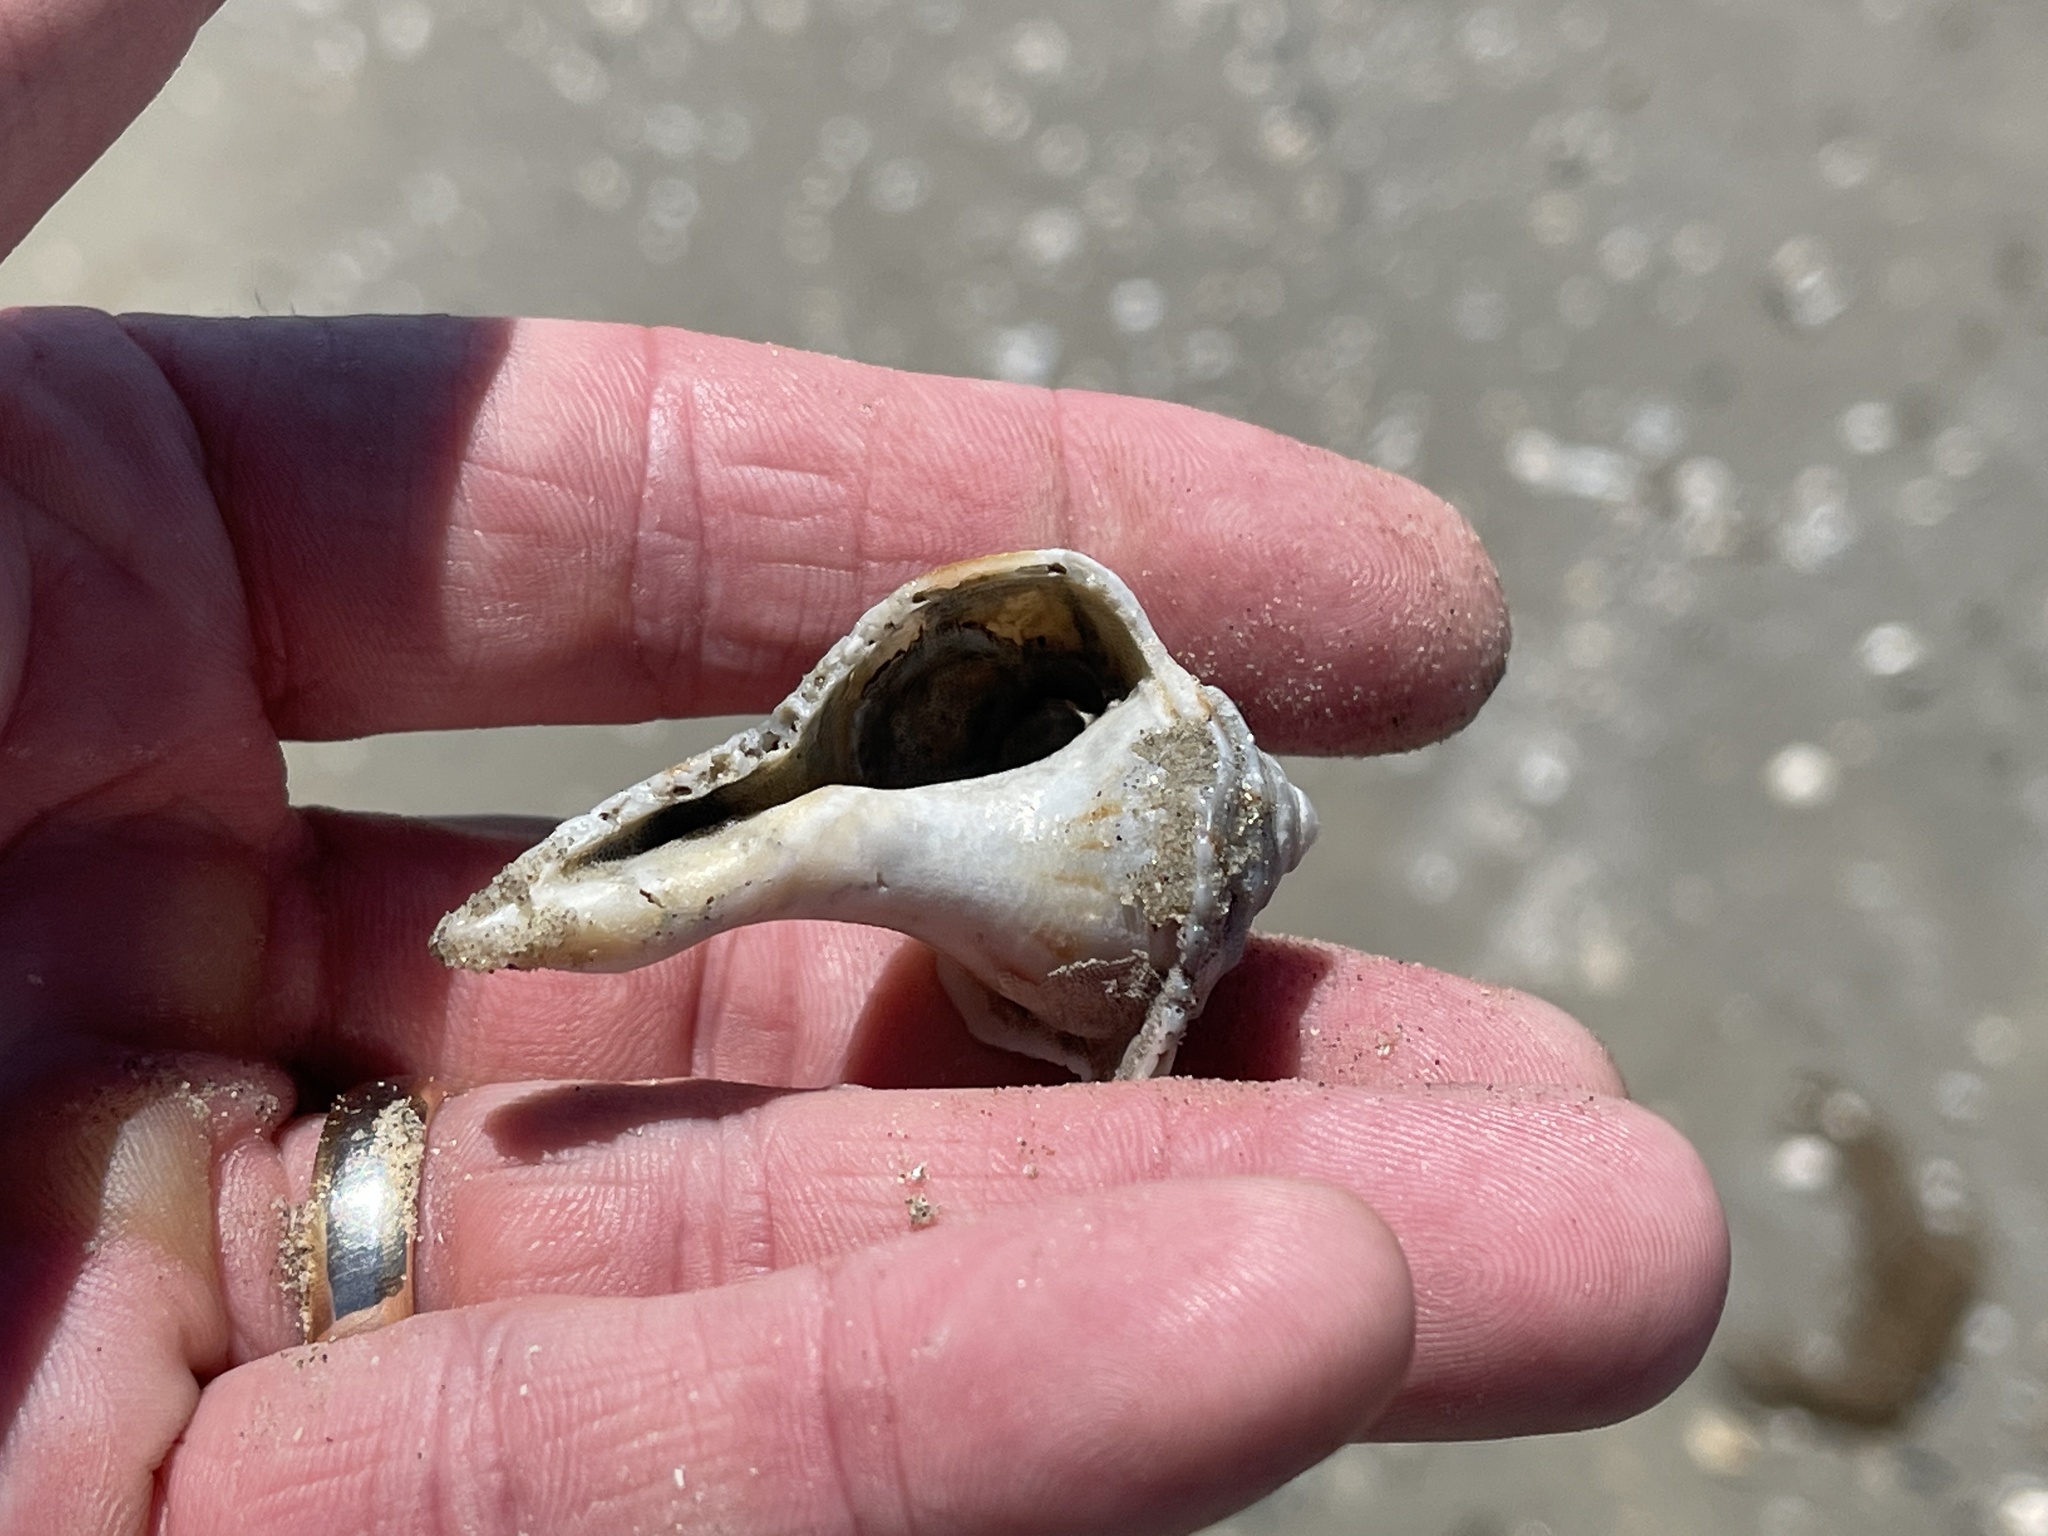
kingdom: Animalia
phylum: Mollusca
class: Gastropoda
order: Neogastropoda
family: Busyconidae
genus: Sinistrofulgur
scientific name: Sinistrofulgur pulleyi
